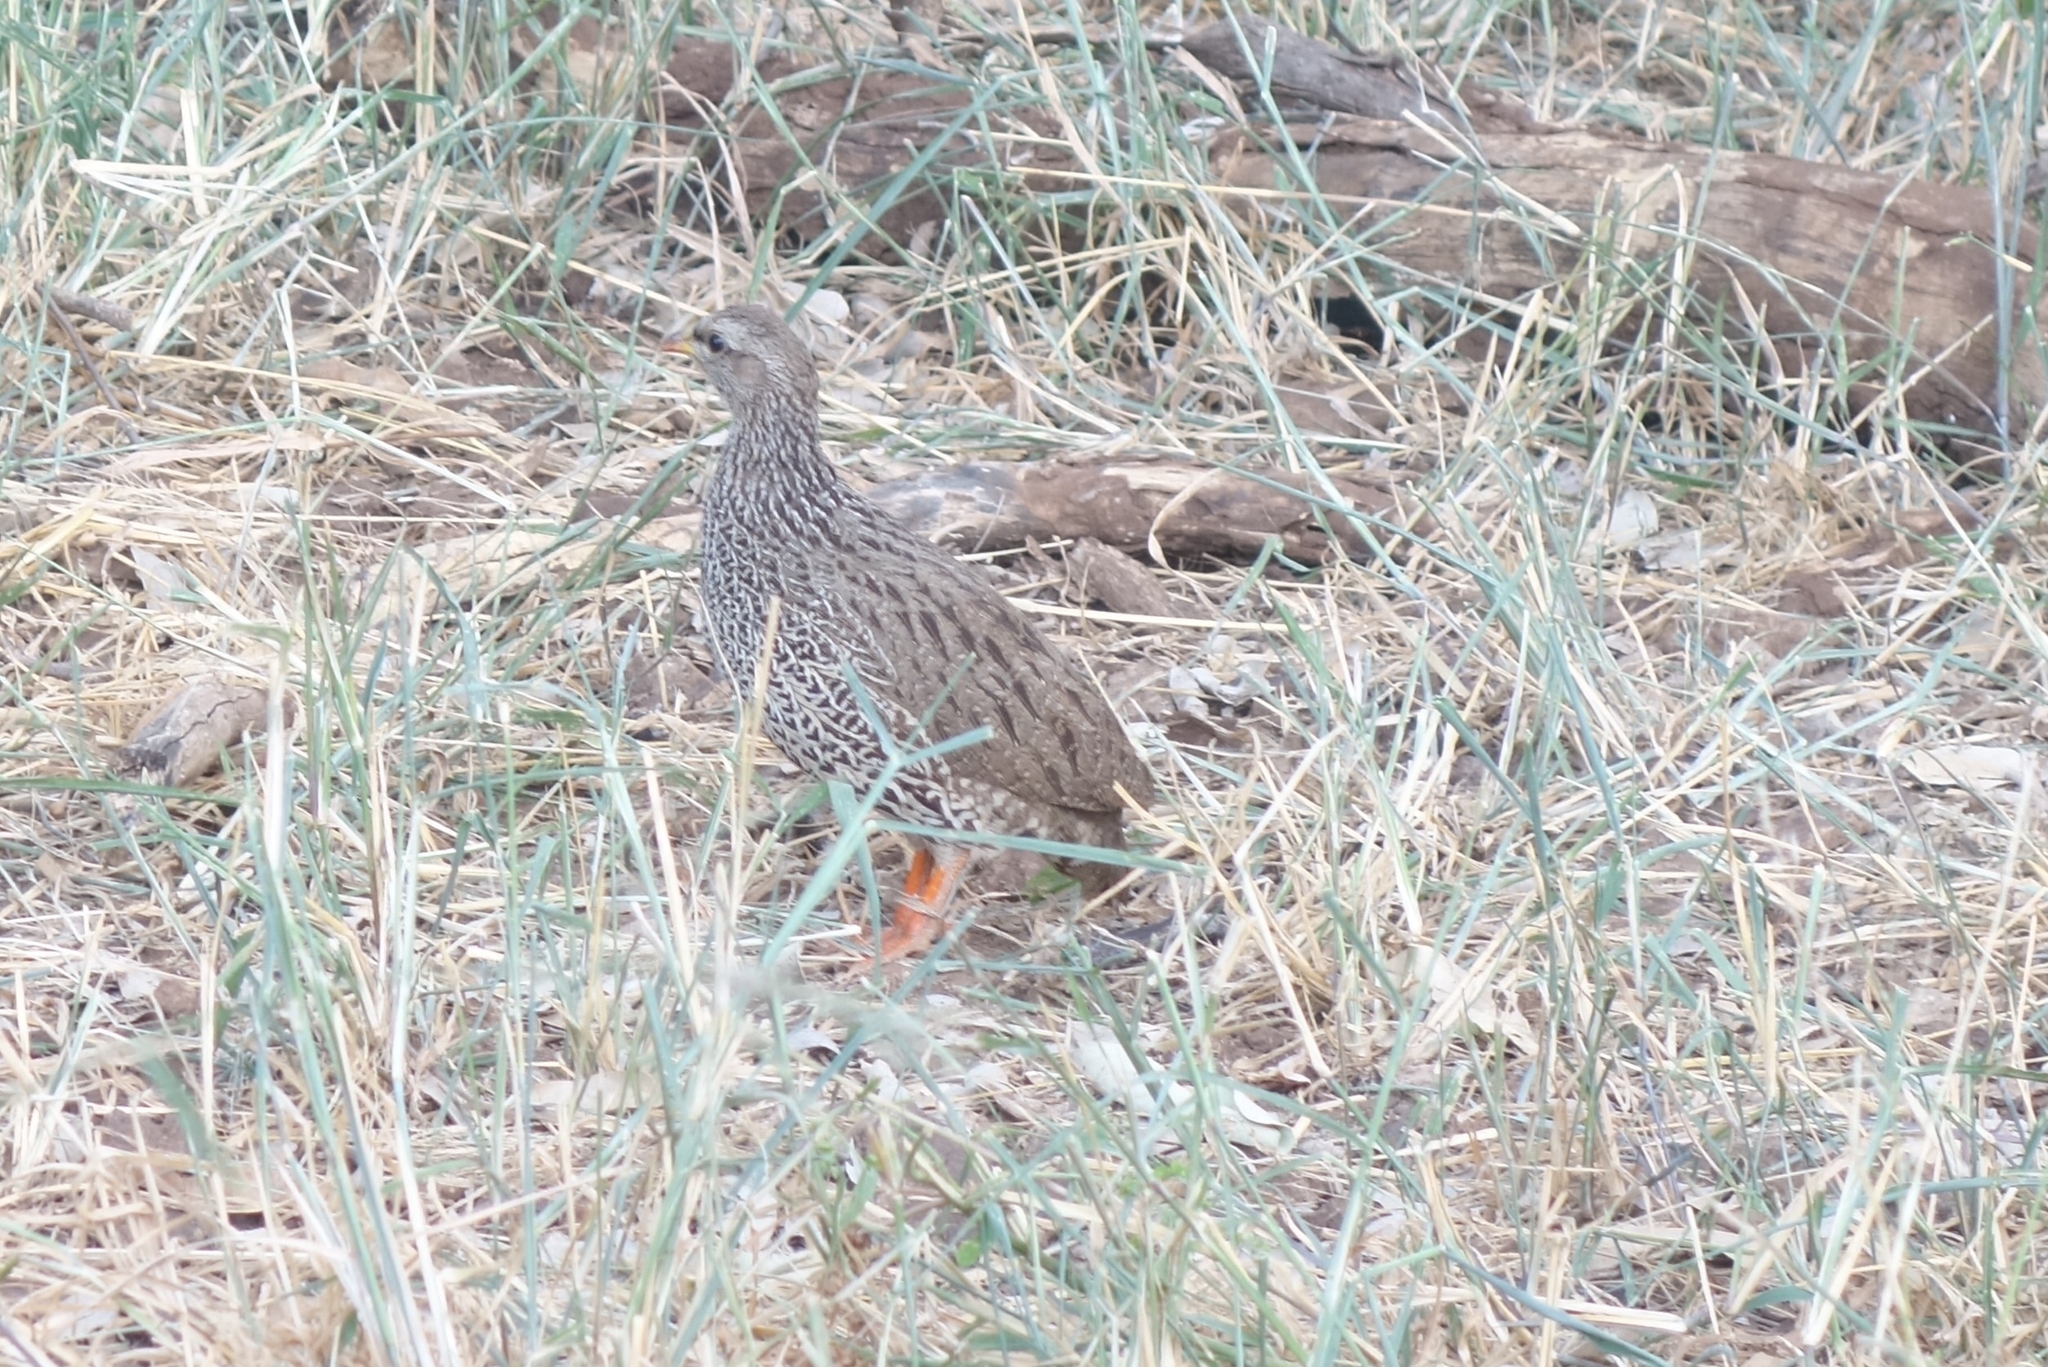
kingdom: Animalia
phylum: Chordata
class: Aves
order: Galliformes
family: Phasianidae
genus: Pternistis
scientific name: Pternistis natalensis
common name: Natal spurfowl
